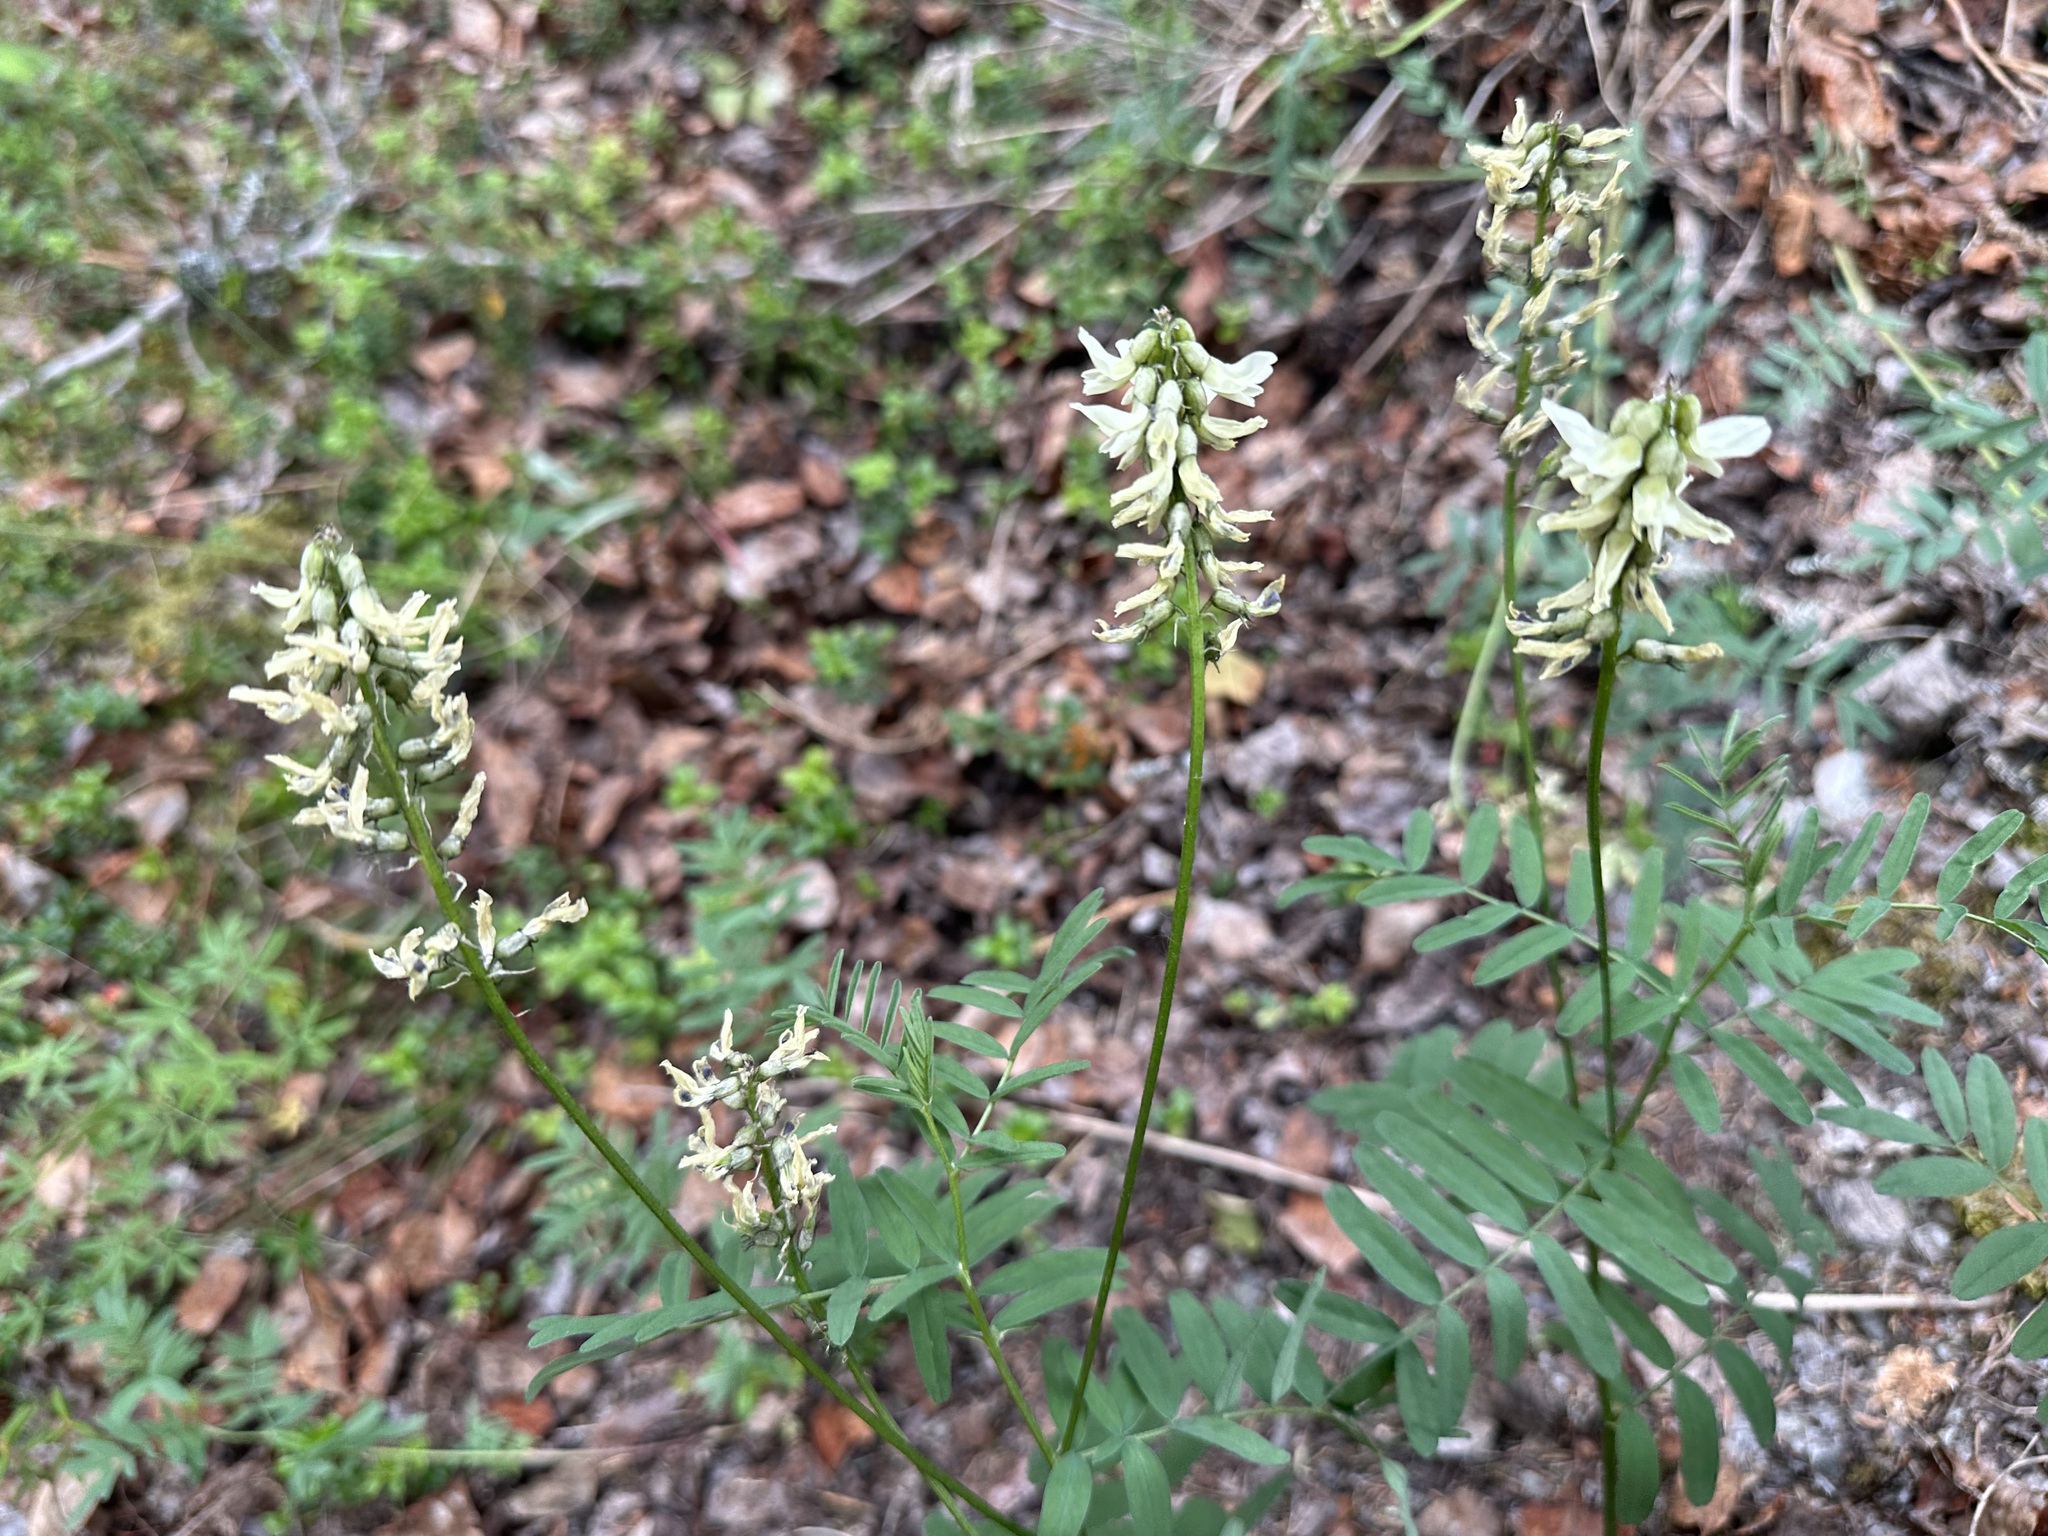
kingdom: Plantae
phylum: Tracheophyta
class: Magnoliopsida
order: Fabales
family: Fabaceae
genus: Astragalus
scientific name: Astragalus robbinsii
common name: Robbins' milk-vetch
